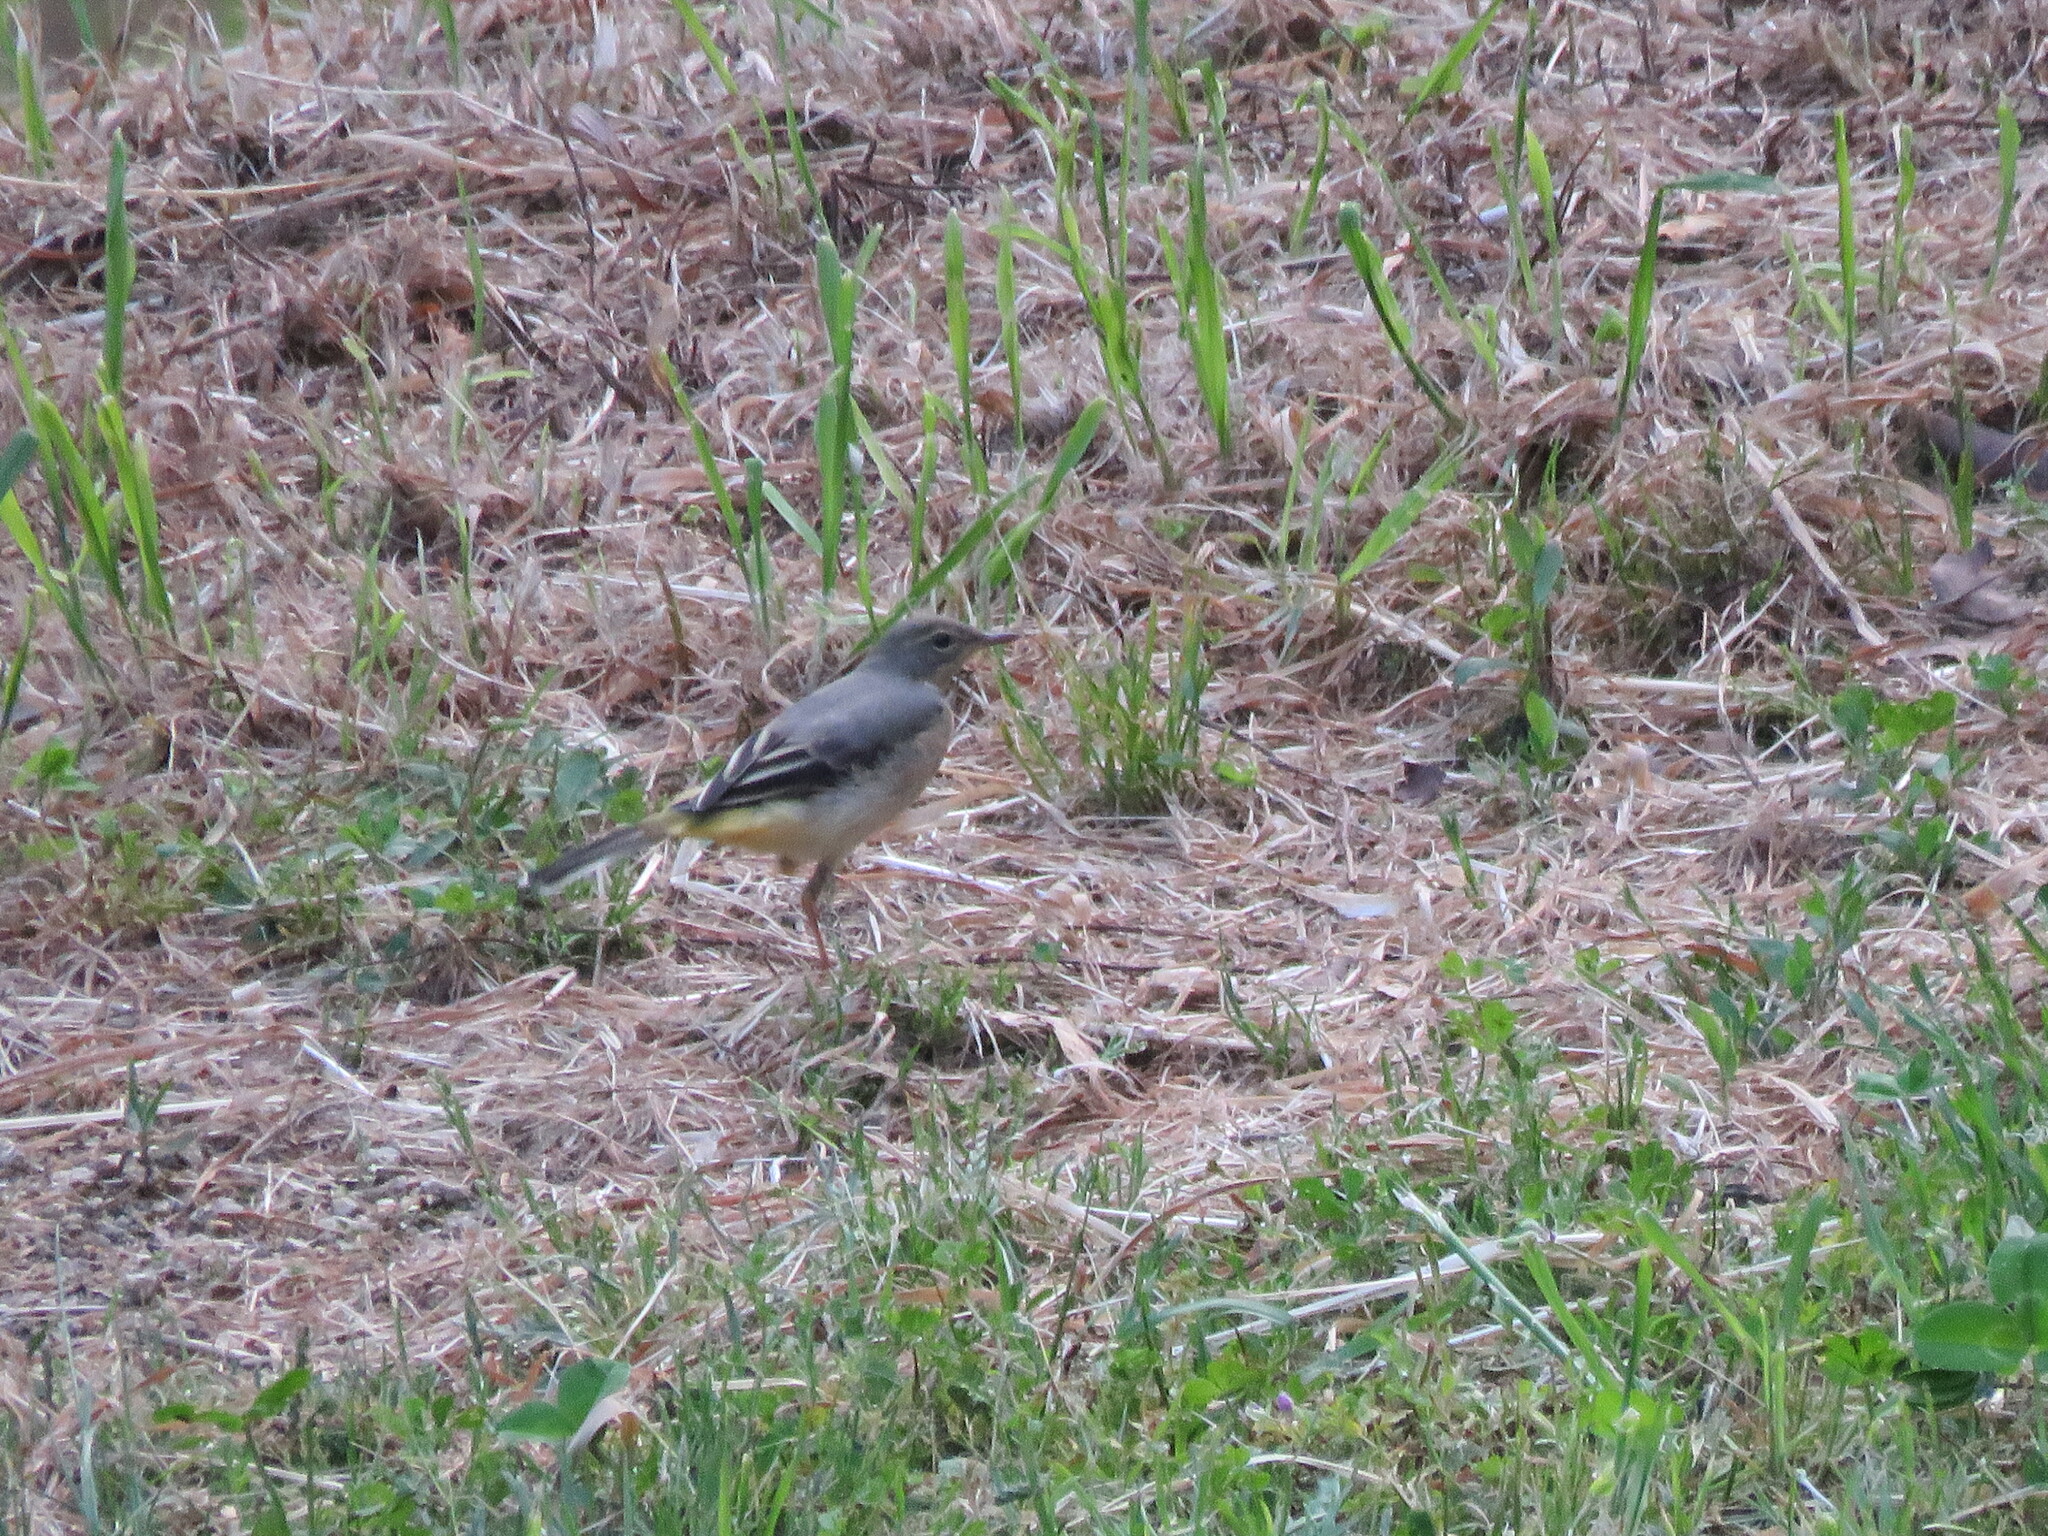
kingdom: Animalia
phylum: Chordata
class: Aves
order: Passeriformes
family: Motacillidae
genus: Motacilla
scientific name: Motacilla cinerea
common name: Grey wagtail
